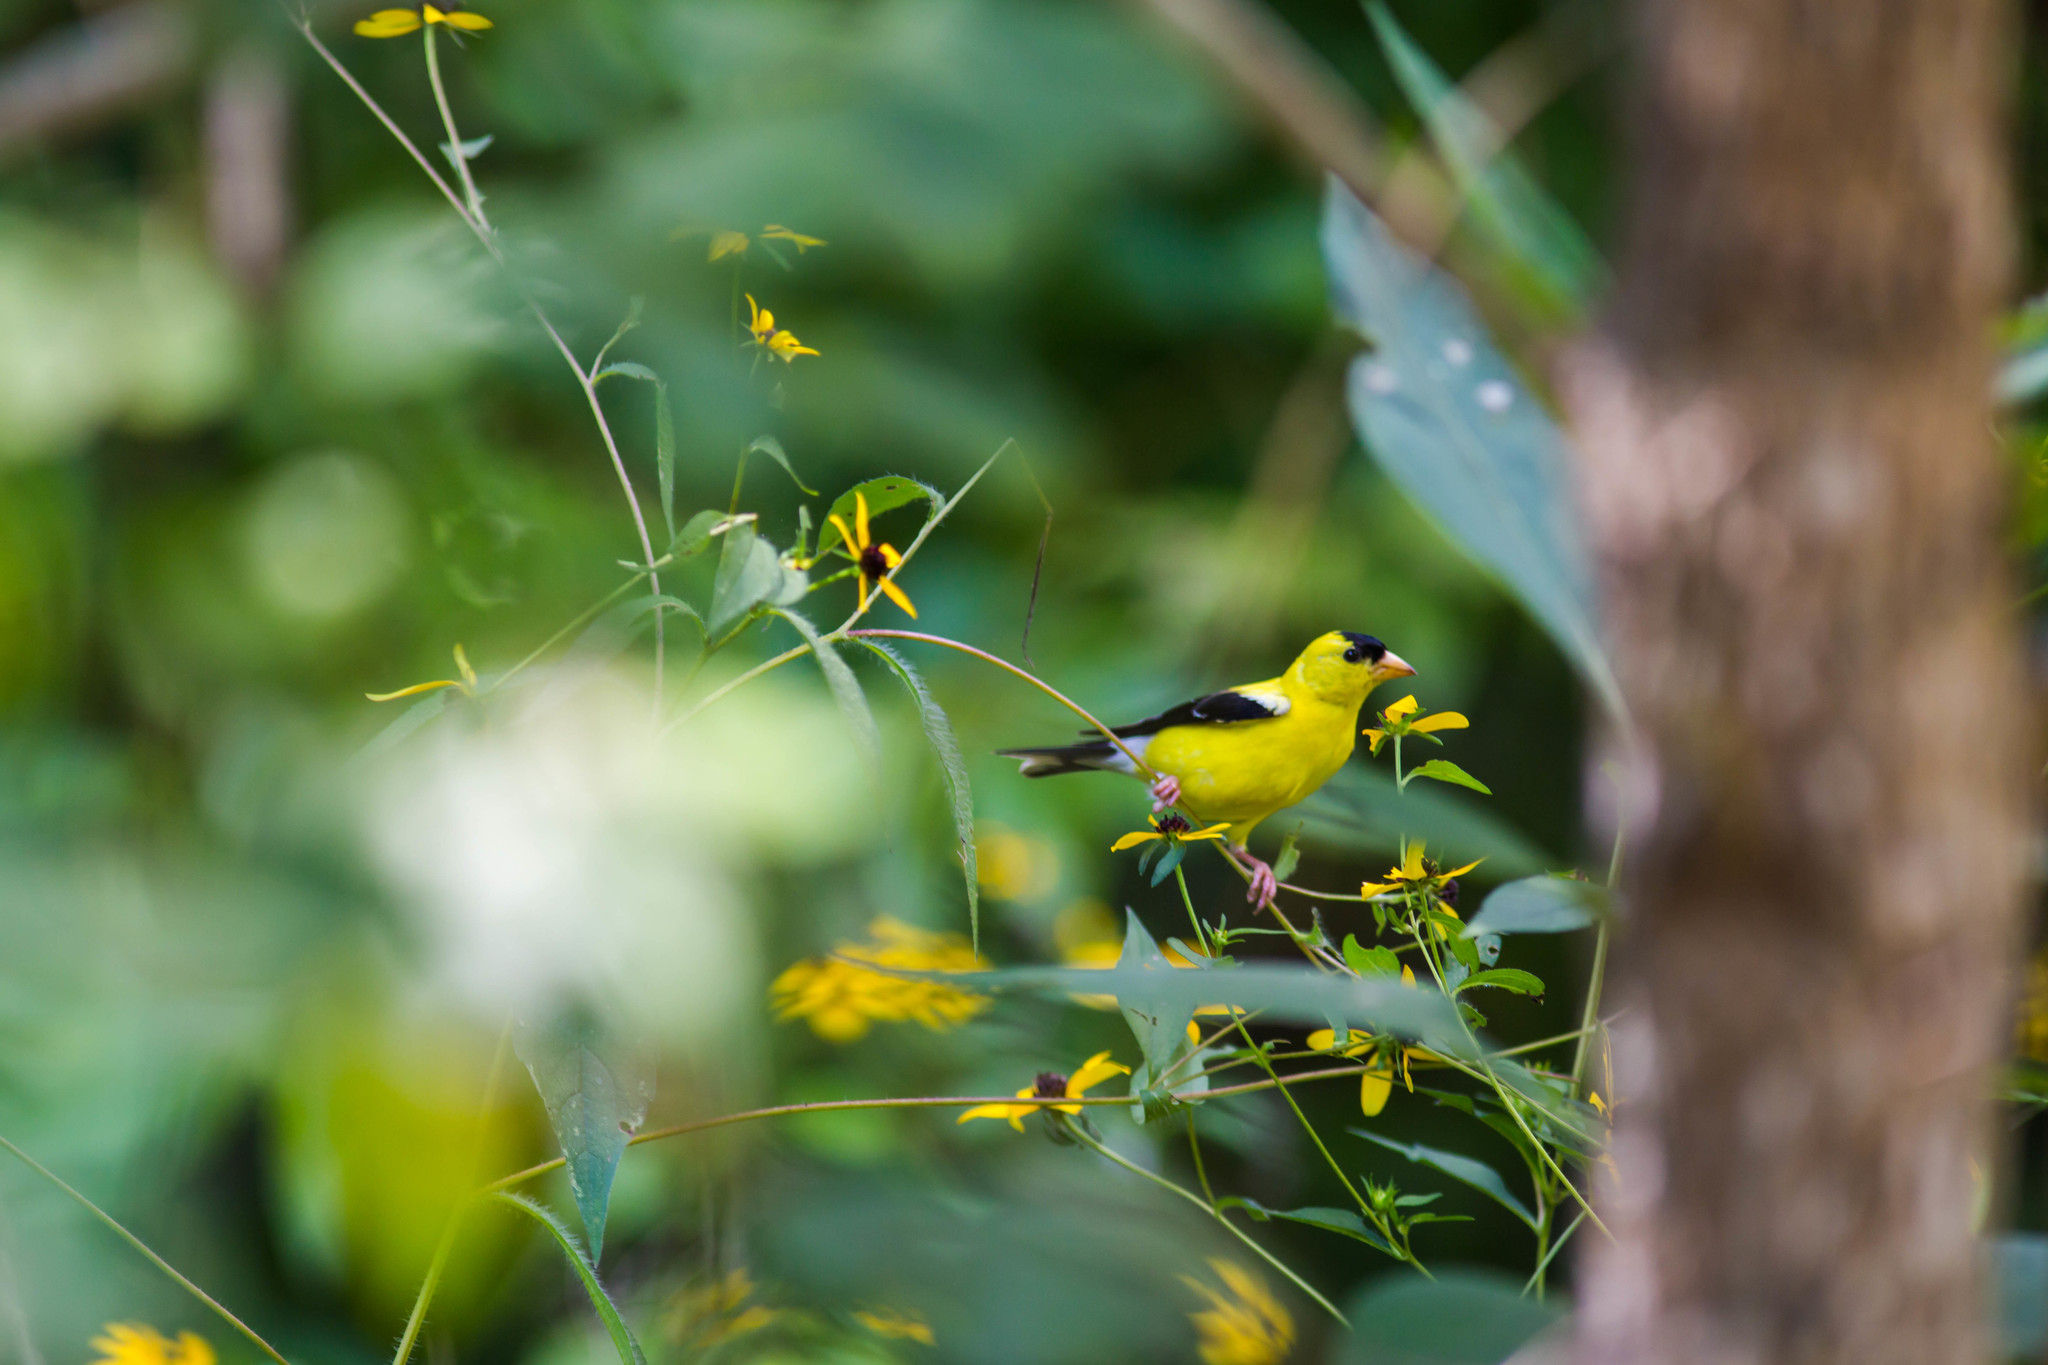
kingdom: Animalia
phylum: Chordata
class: Aves
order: Passeriformes
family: Fringillidae
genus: Spinus
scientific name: Spinus tristis
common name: American goldfinch
